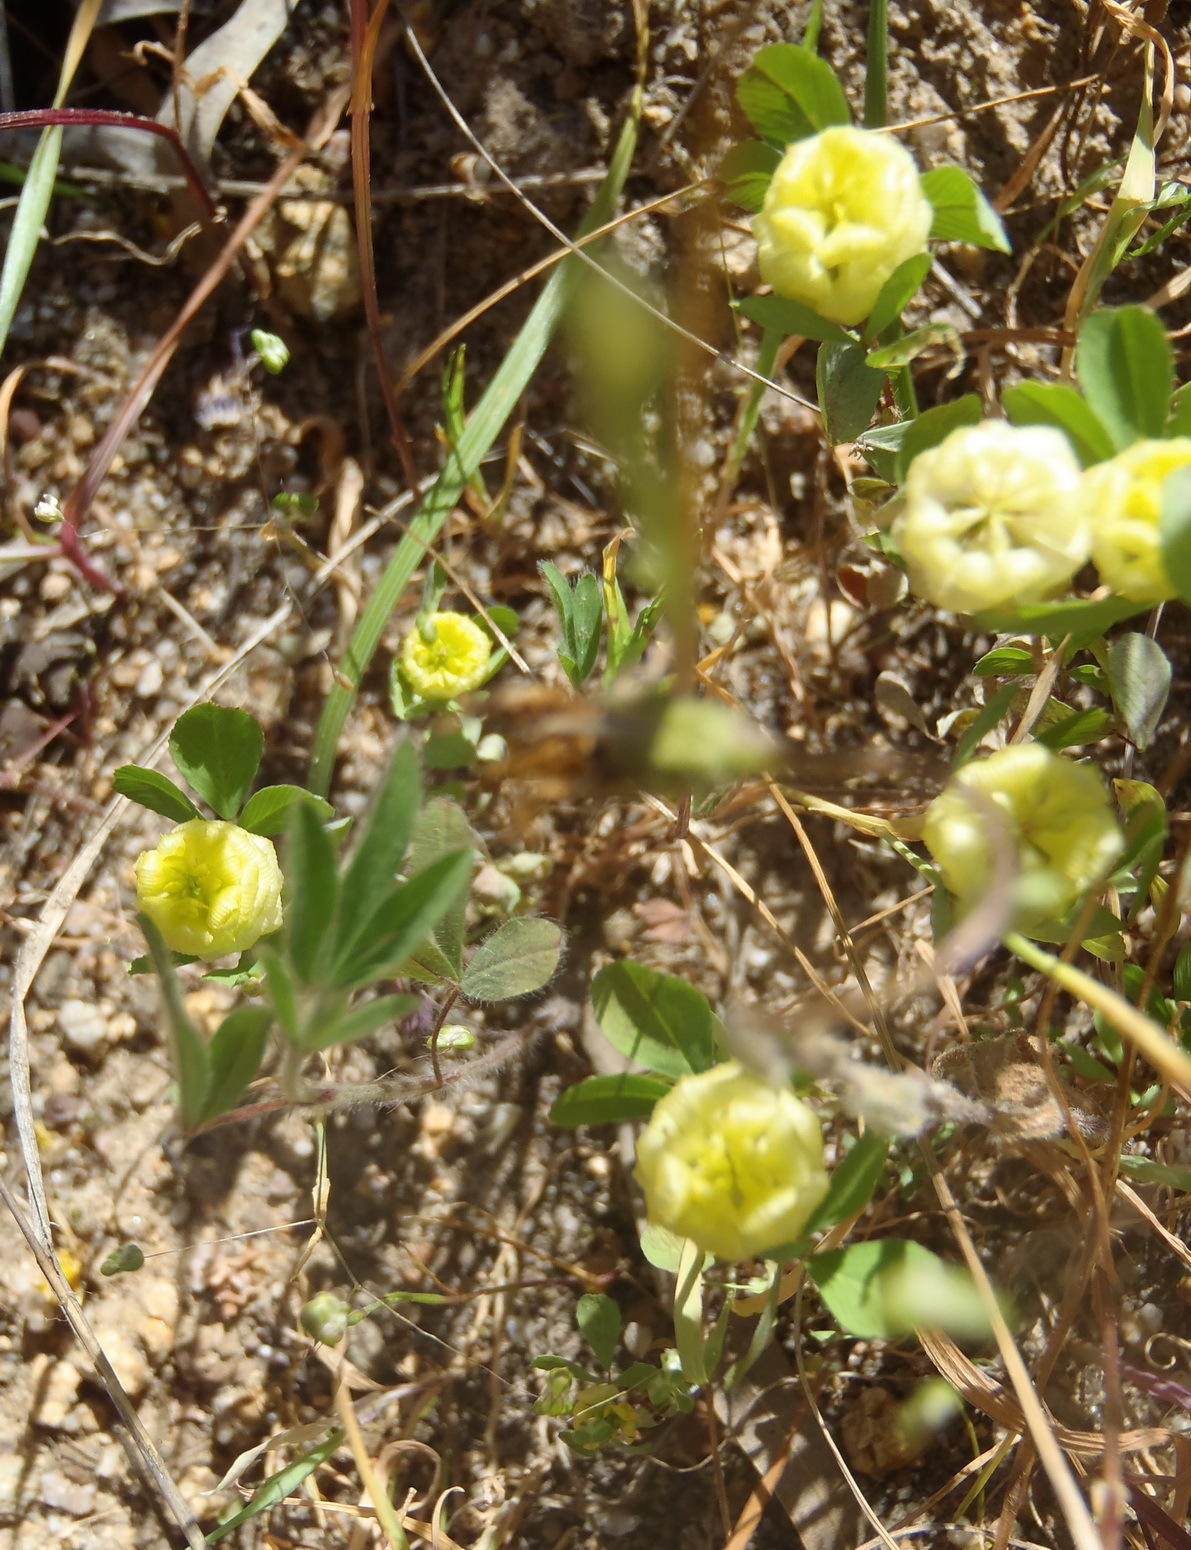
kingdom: Plantae
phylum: Tracheophyta
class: Magnoliopsida
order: Fabales
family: Fabaceae
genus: Trifolium
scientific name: Trifolium campestre
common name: Field clover
